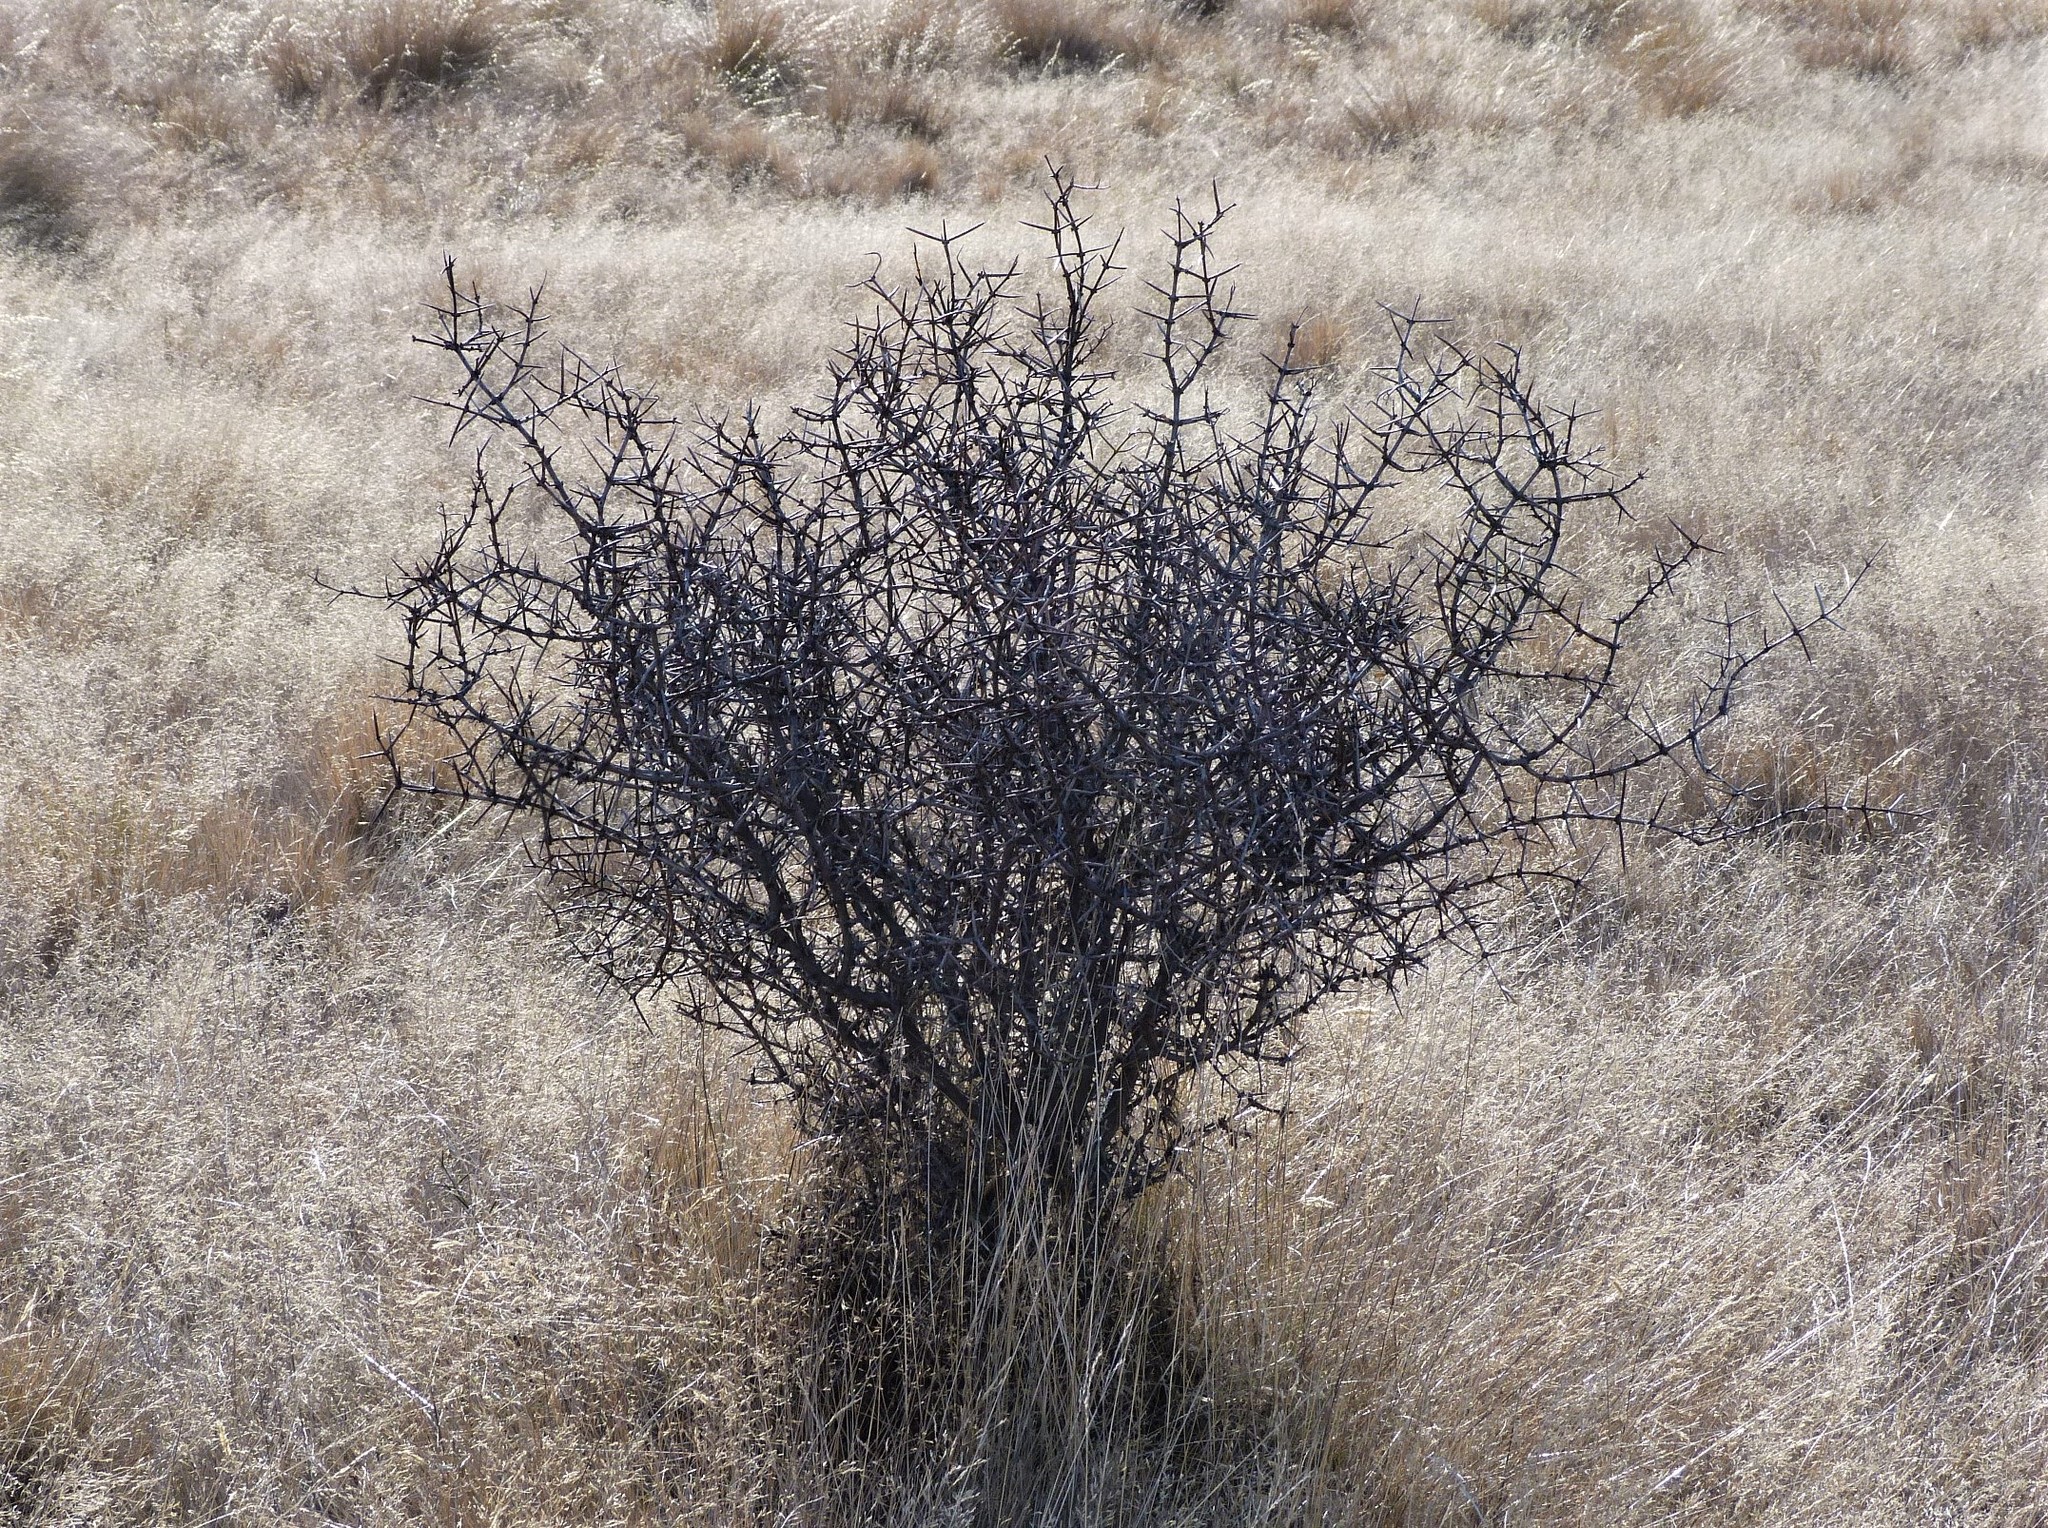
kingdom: Plantae
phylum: Tracheophyta
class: Magnoliopsida
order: Rosales
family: Rhamnaceae
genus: Discaria
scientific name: Discaria toumatou
